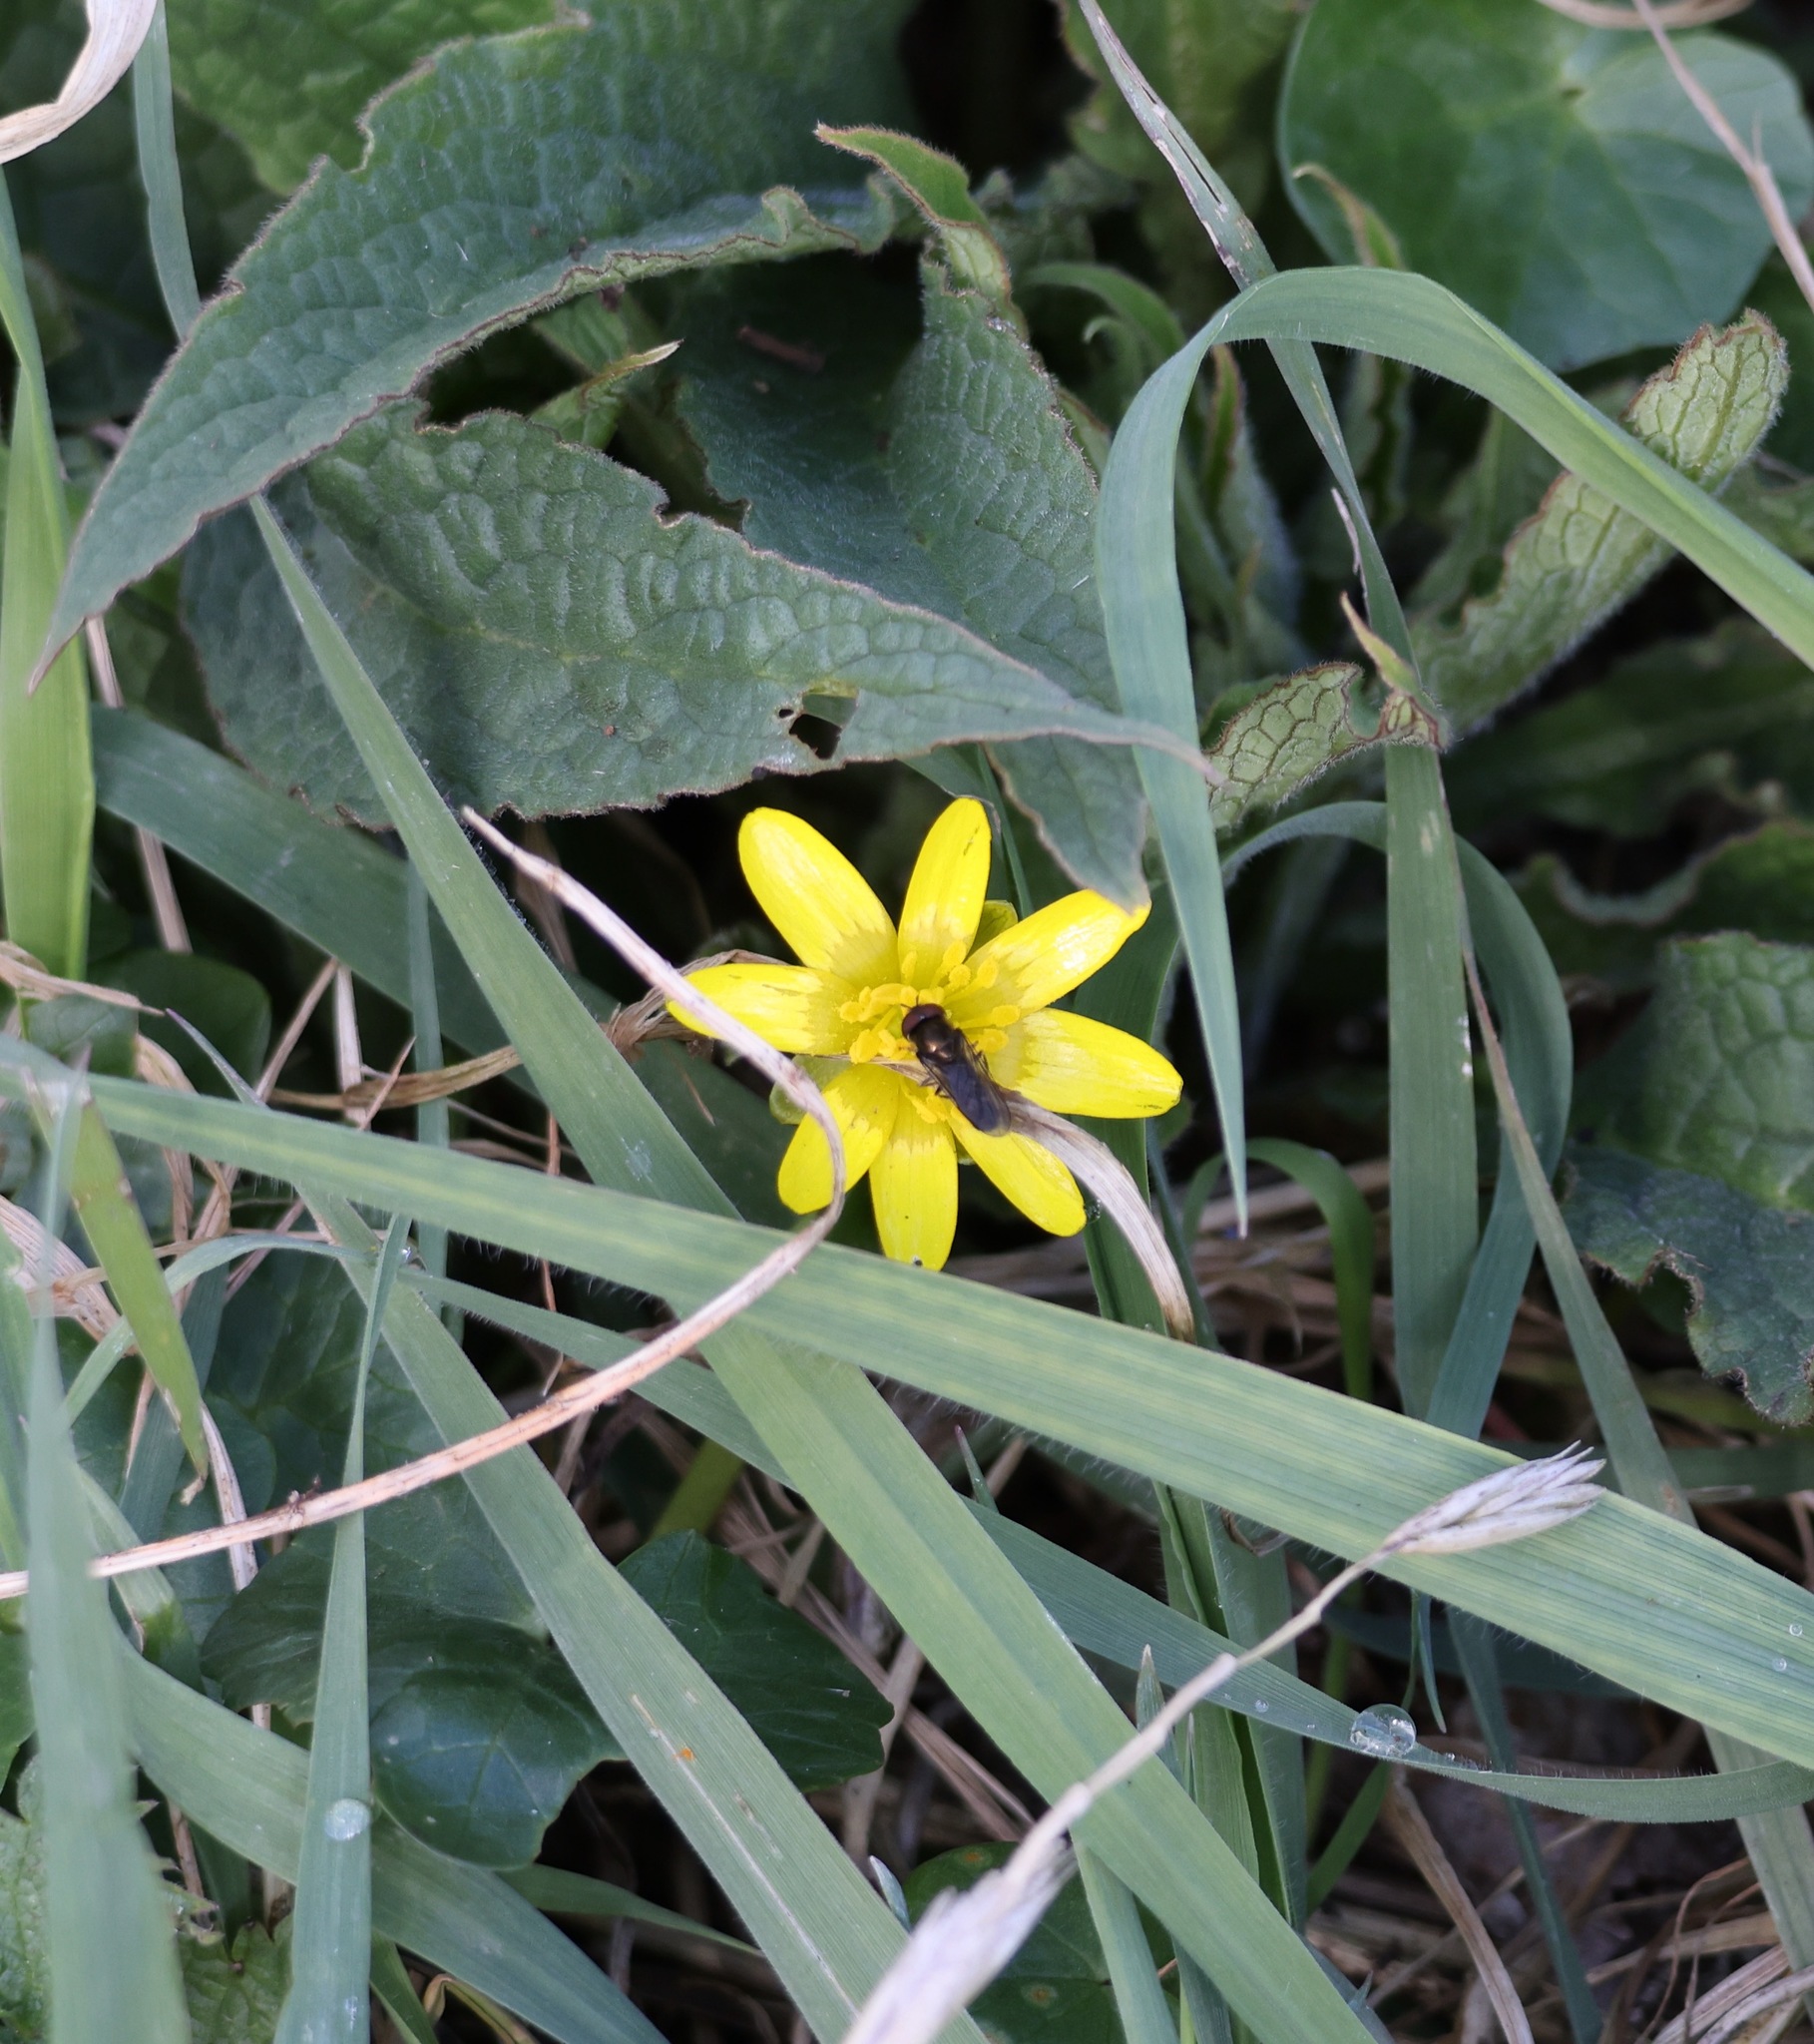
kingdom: Plantae
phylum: Tracheophyta
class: Magnoliopsida
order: Ranunculales
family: Ranunculaceae
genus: Ficaria
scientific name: Ficaria verna
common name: Lesser celandine
